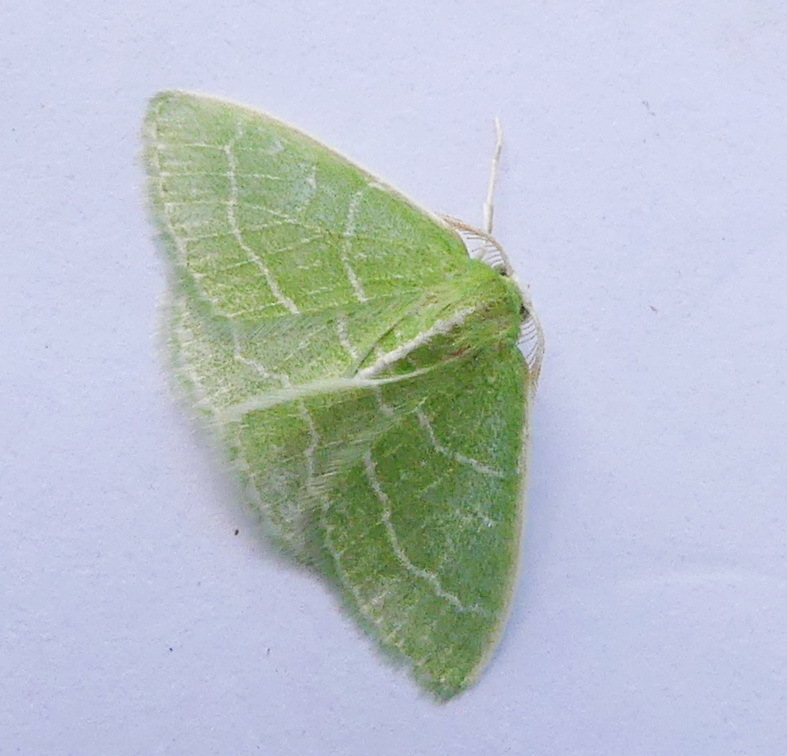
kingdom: Animalia
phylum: Arthropoda
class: Insecta
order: Lepidoptera
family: Geometridae
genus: Synchlora
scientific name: Synchlora aerata
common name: Wavy-lined emerald
